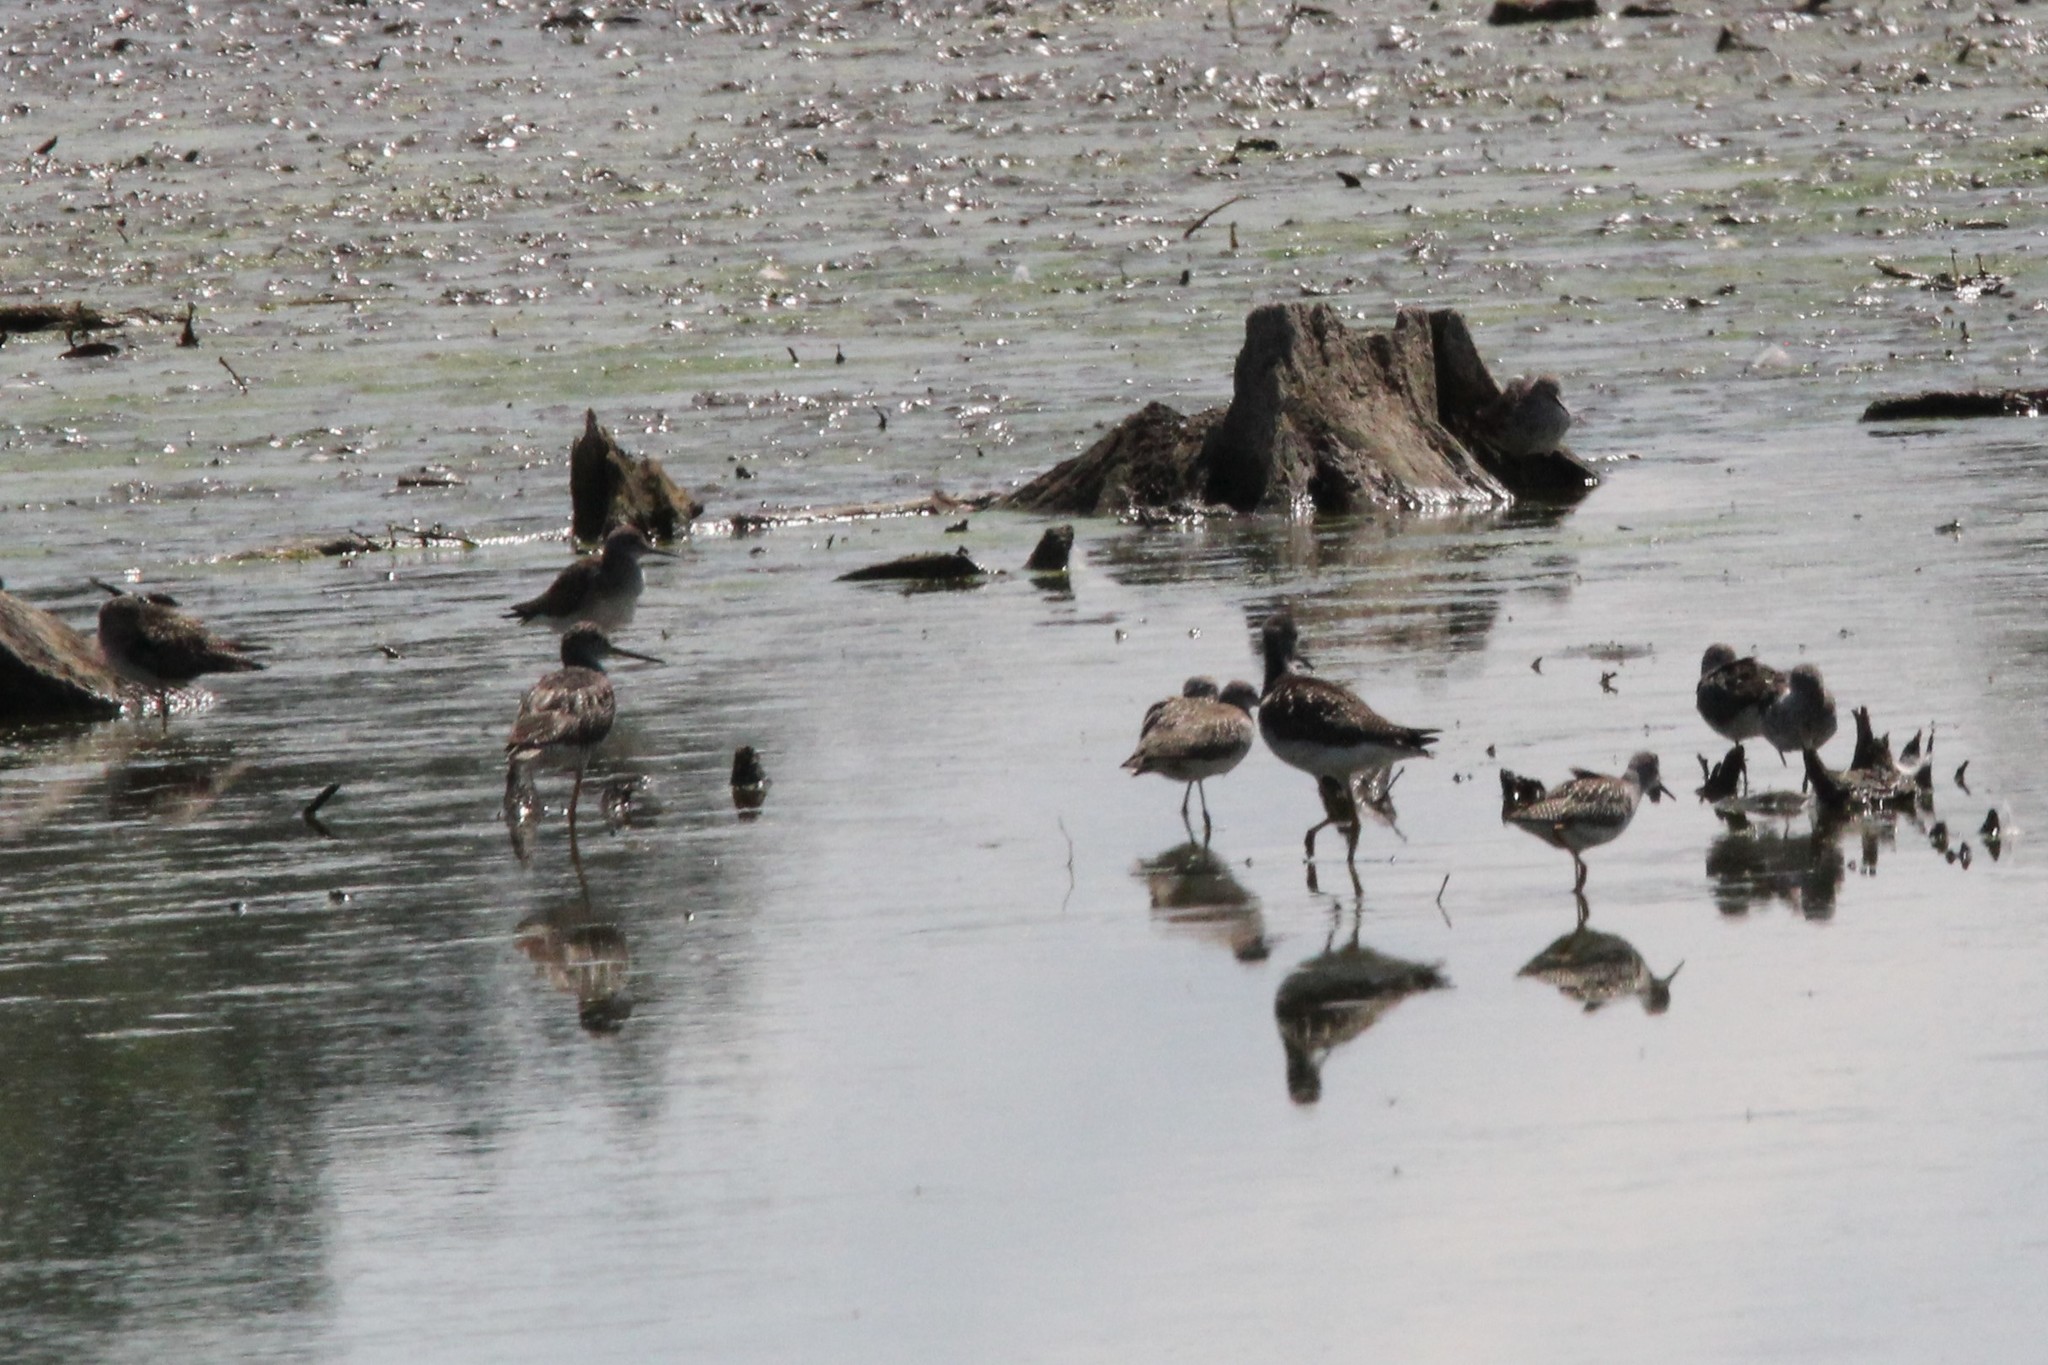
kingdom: Animalia
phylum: Chordata
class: Aves
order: Charadriiformes
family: Scolopacidae
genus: Tringa
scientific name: Tringa melanoleuca
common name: Greater yellowlegs
